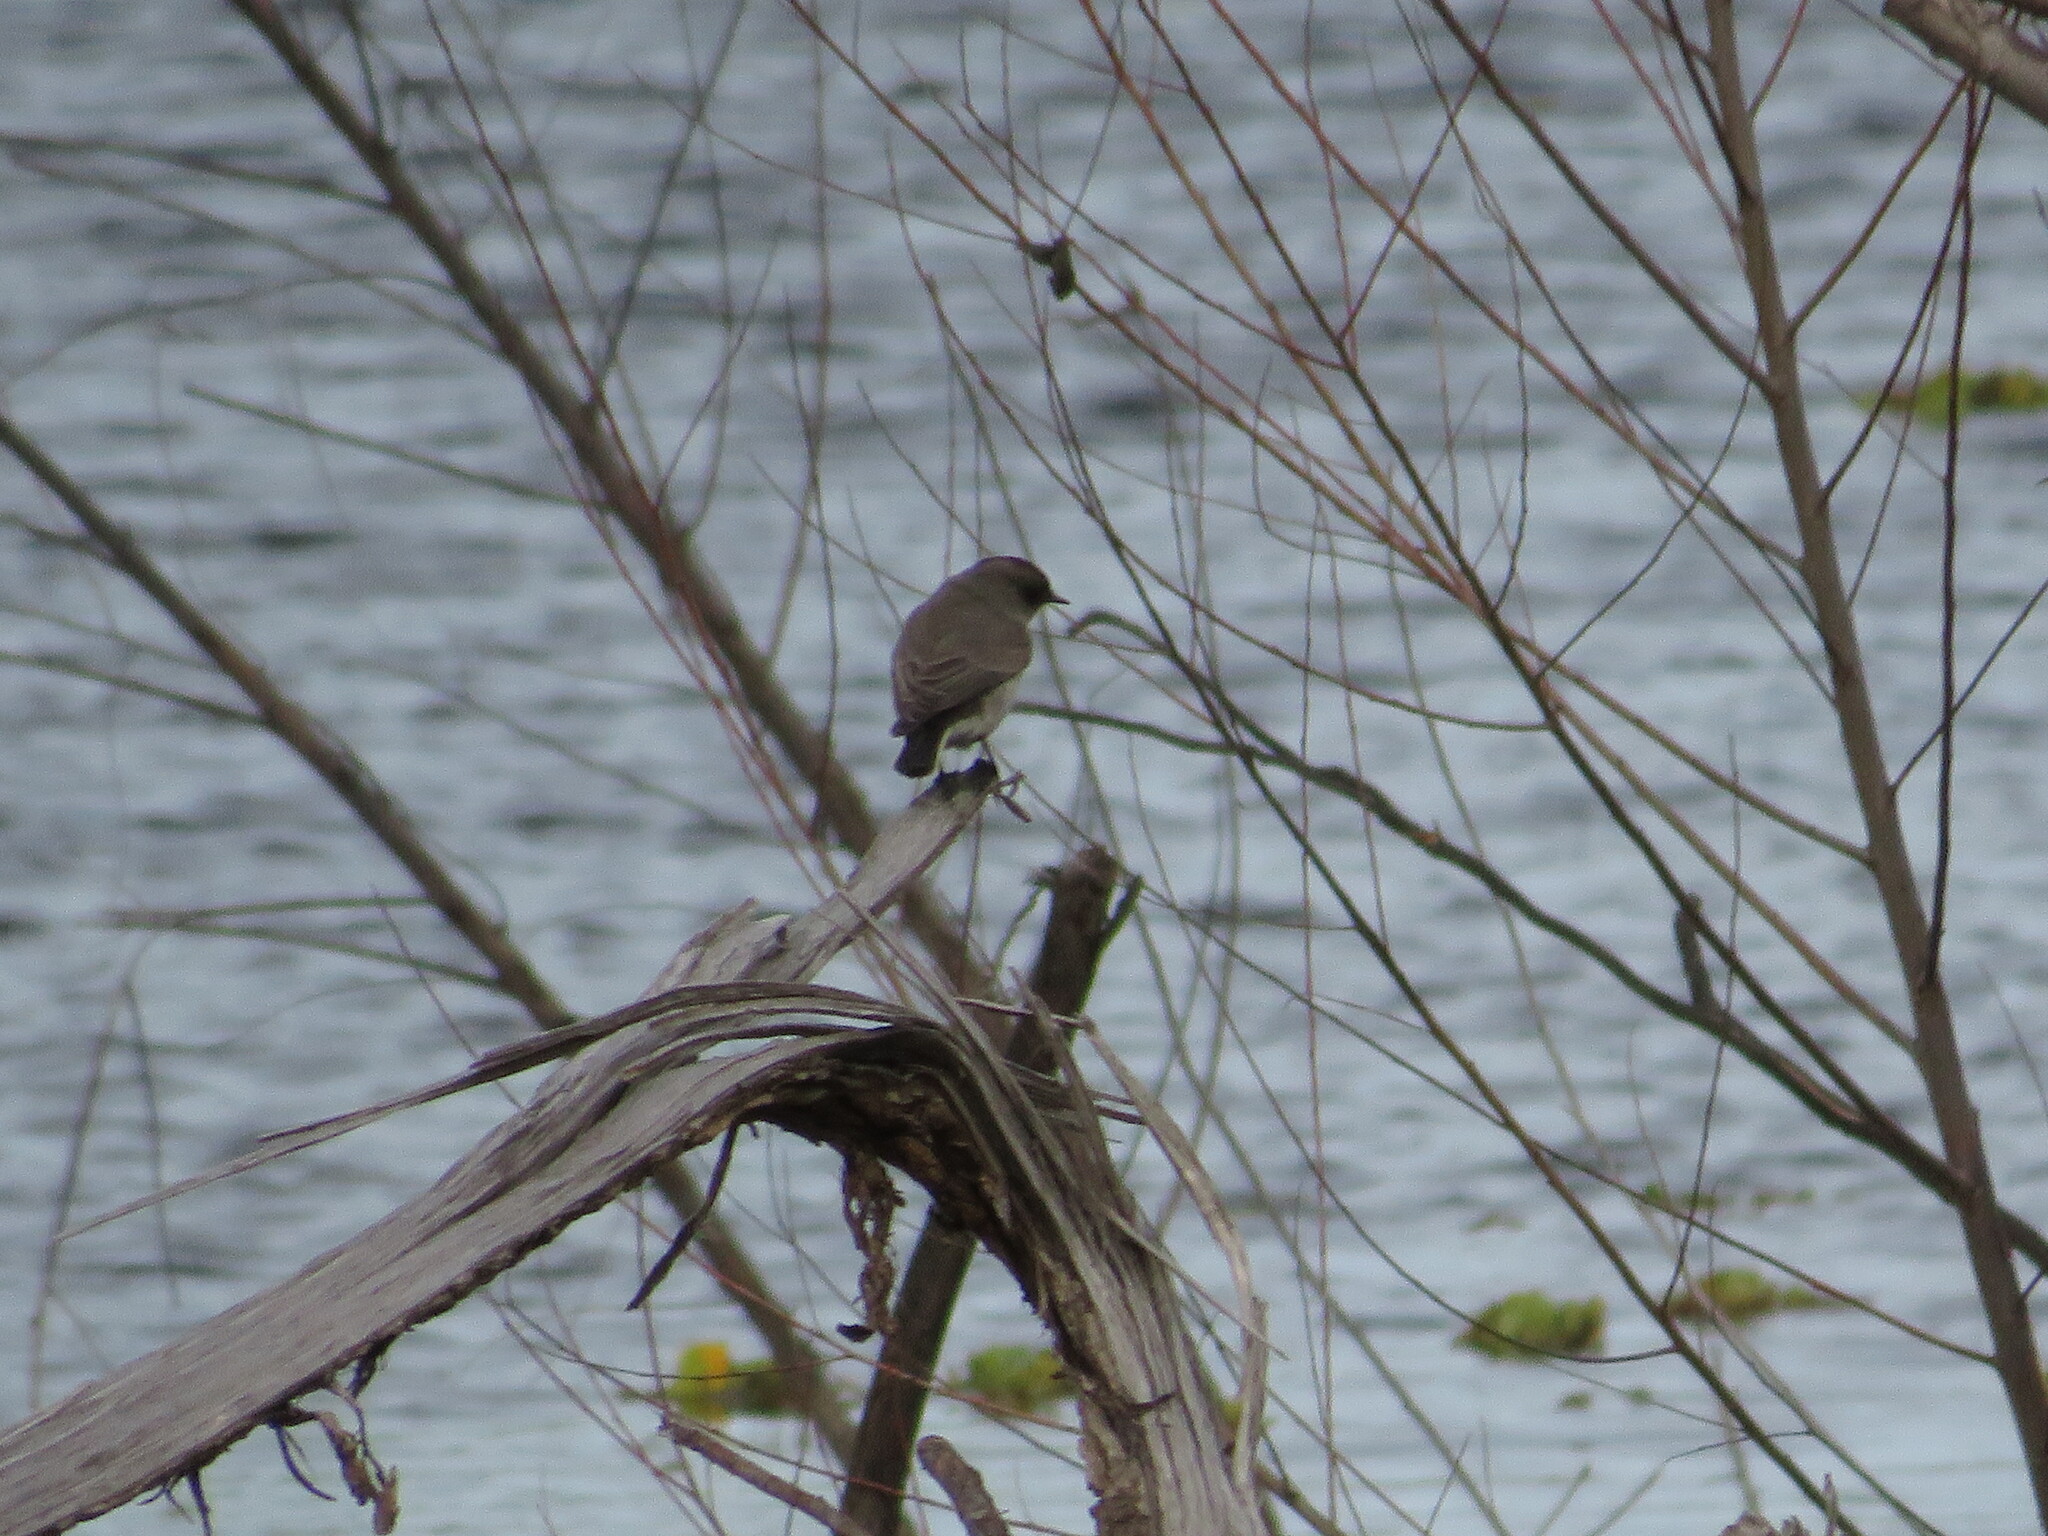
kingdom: Animalia
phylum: Chordata
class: Aves
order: Passeriformes
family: Tyrannidae
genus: Muscisaxicola
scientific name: Muscisaxicola maclovianus
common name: Dark-faced ground tyrant
